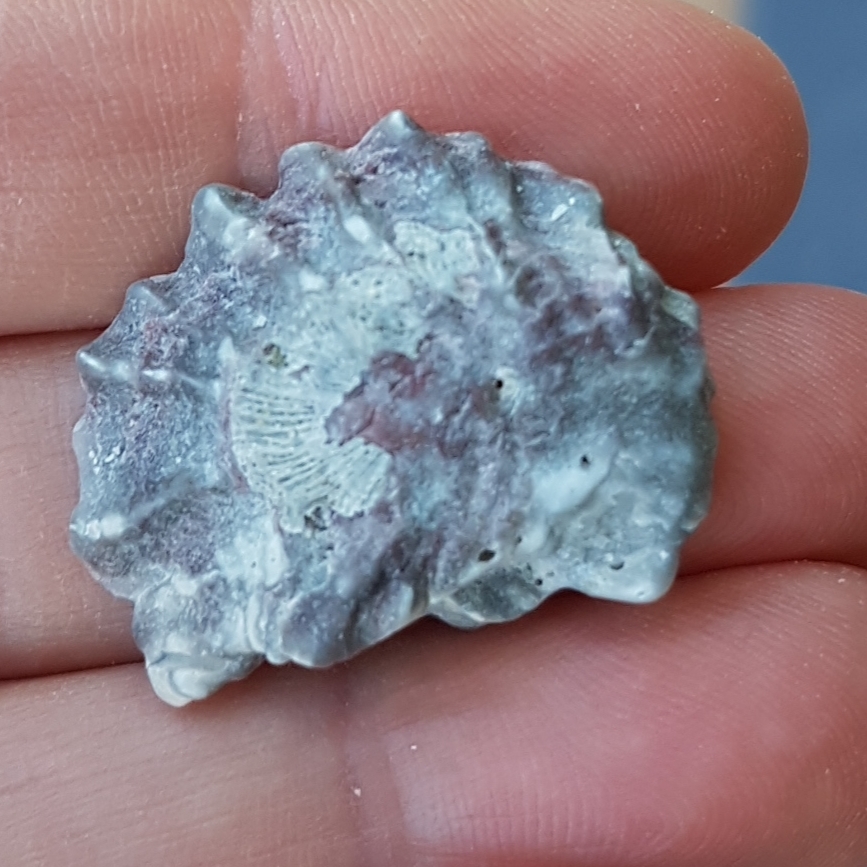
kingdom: Animalia
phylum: Mollusca
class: Bivalvia
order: Ostreida
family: Ostreidae
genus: Ostrea
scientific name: Ostrea edulis
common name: Flat oyster
